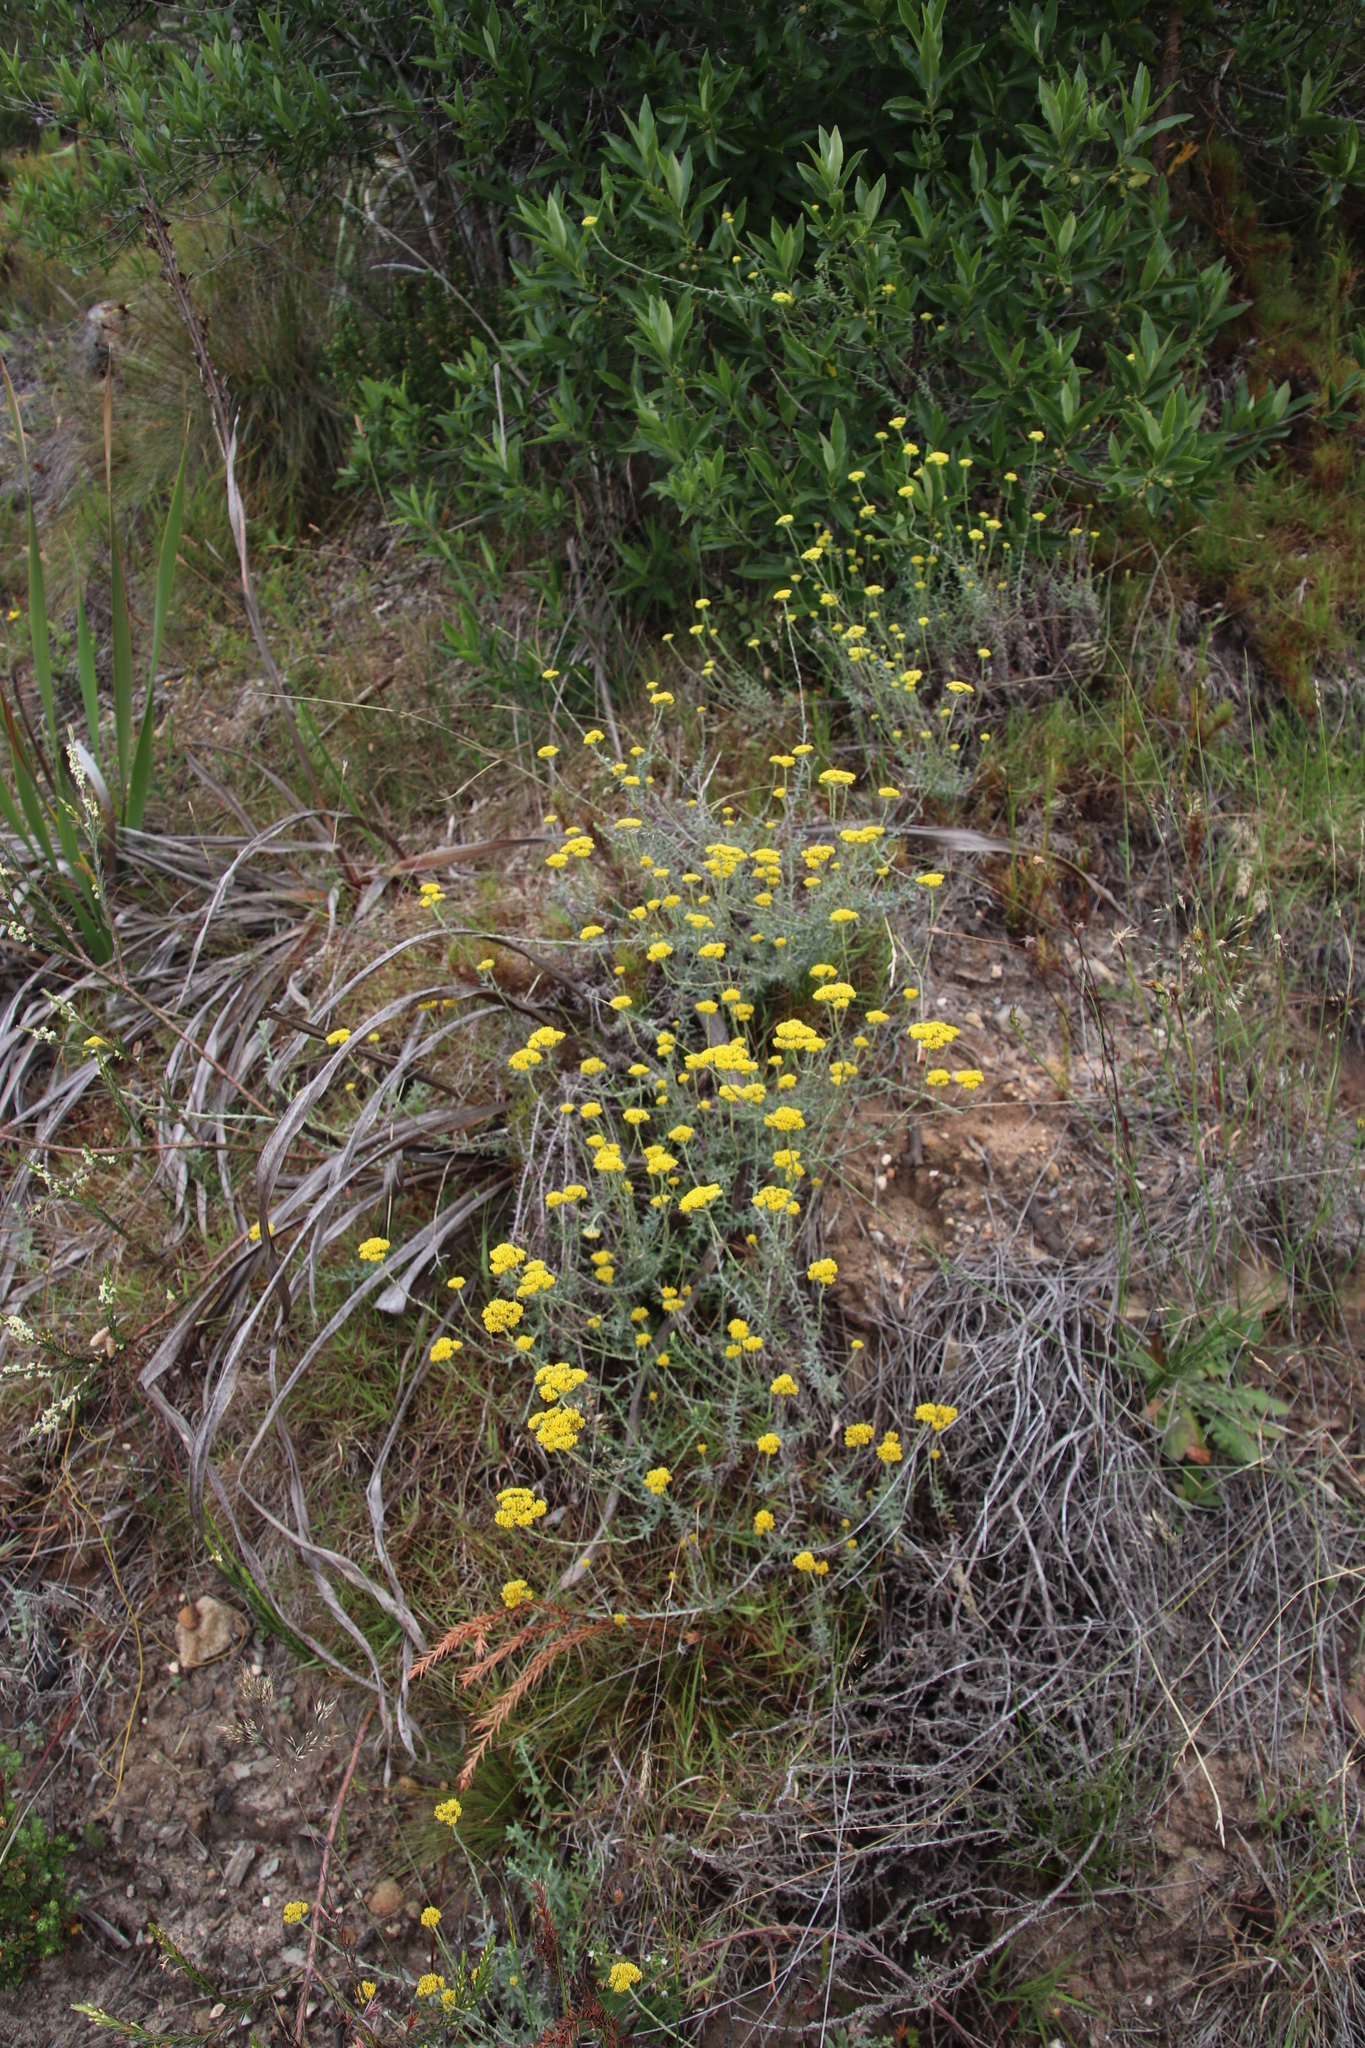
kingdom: Plantae
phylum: Tracheophyta
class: Magnoliopsida
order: Asterales
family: Asteraceae
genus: Helichrysum
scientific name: Helichrysum cymosum
